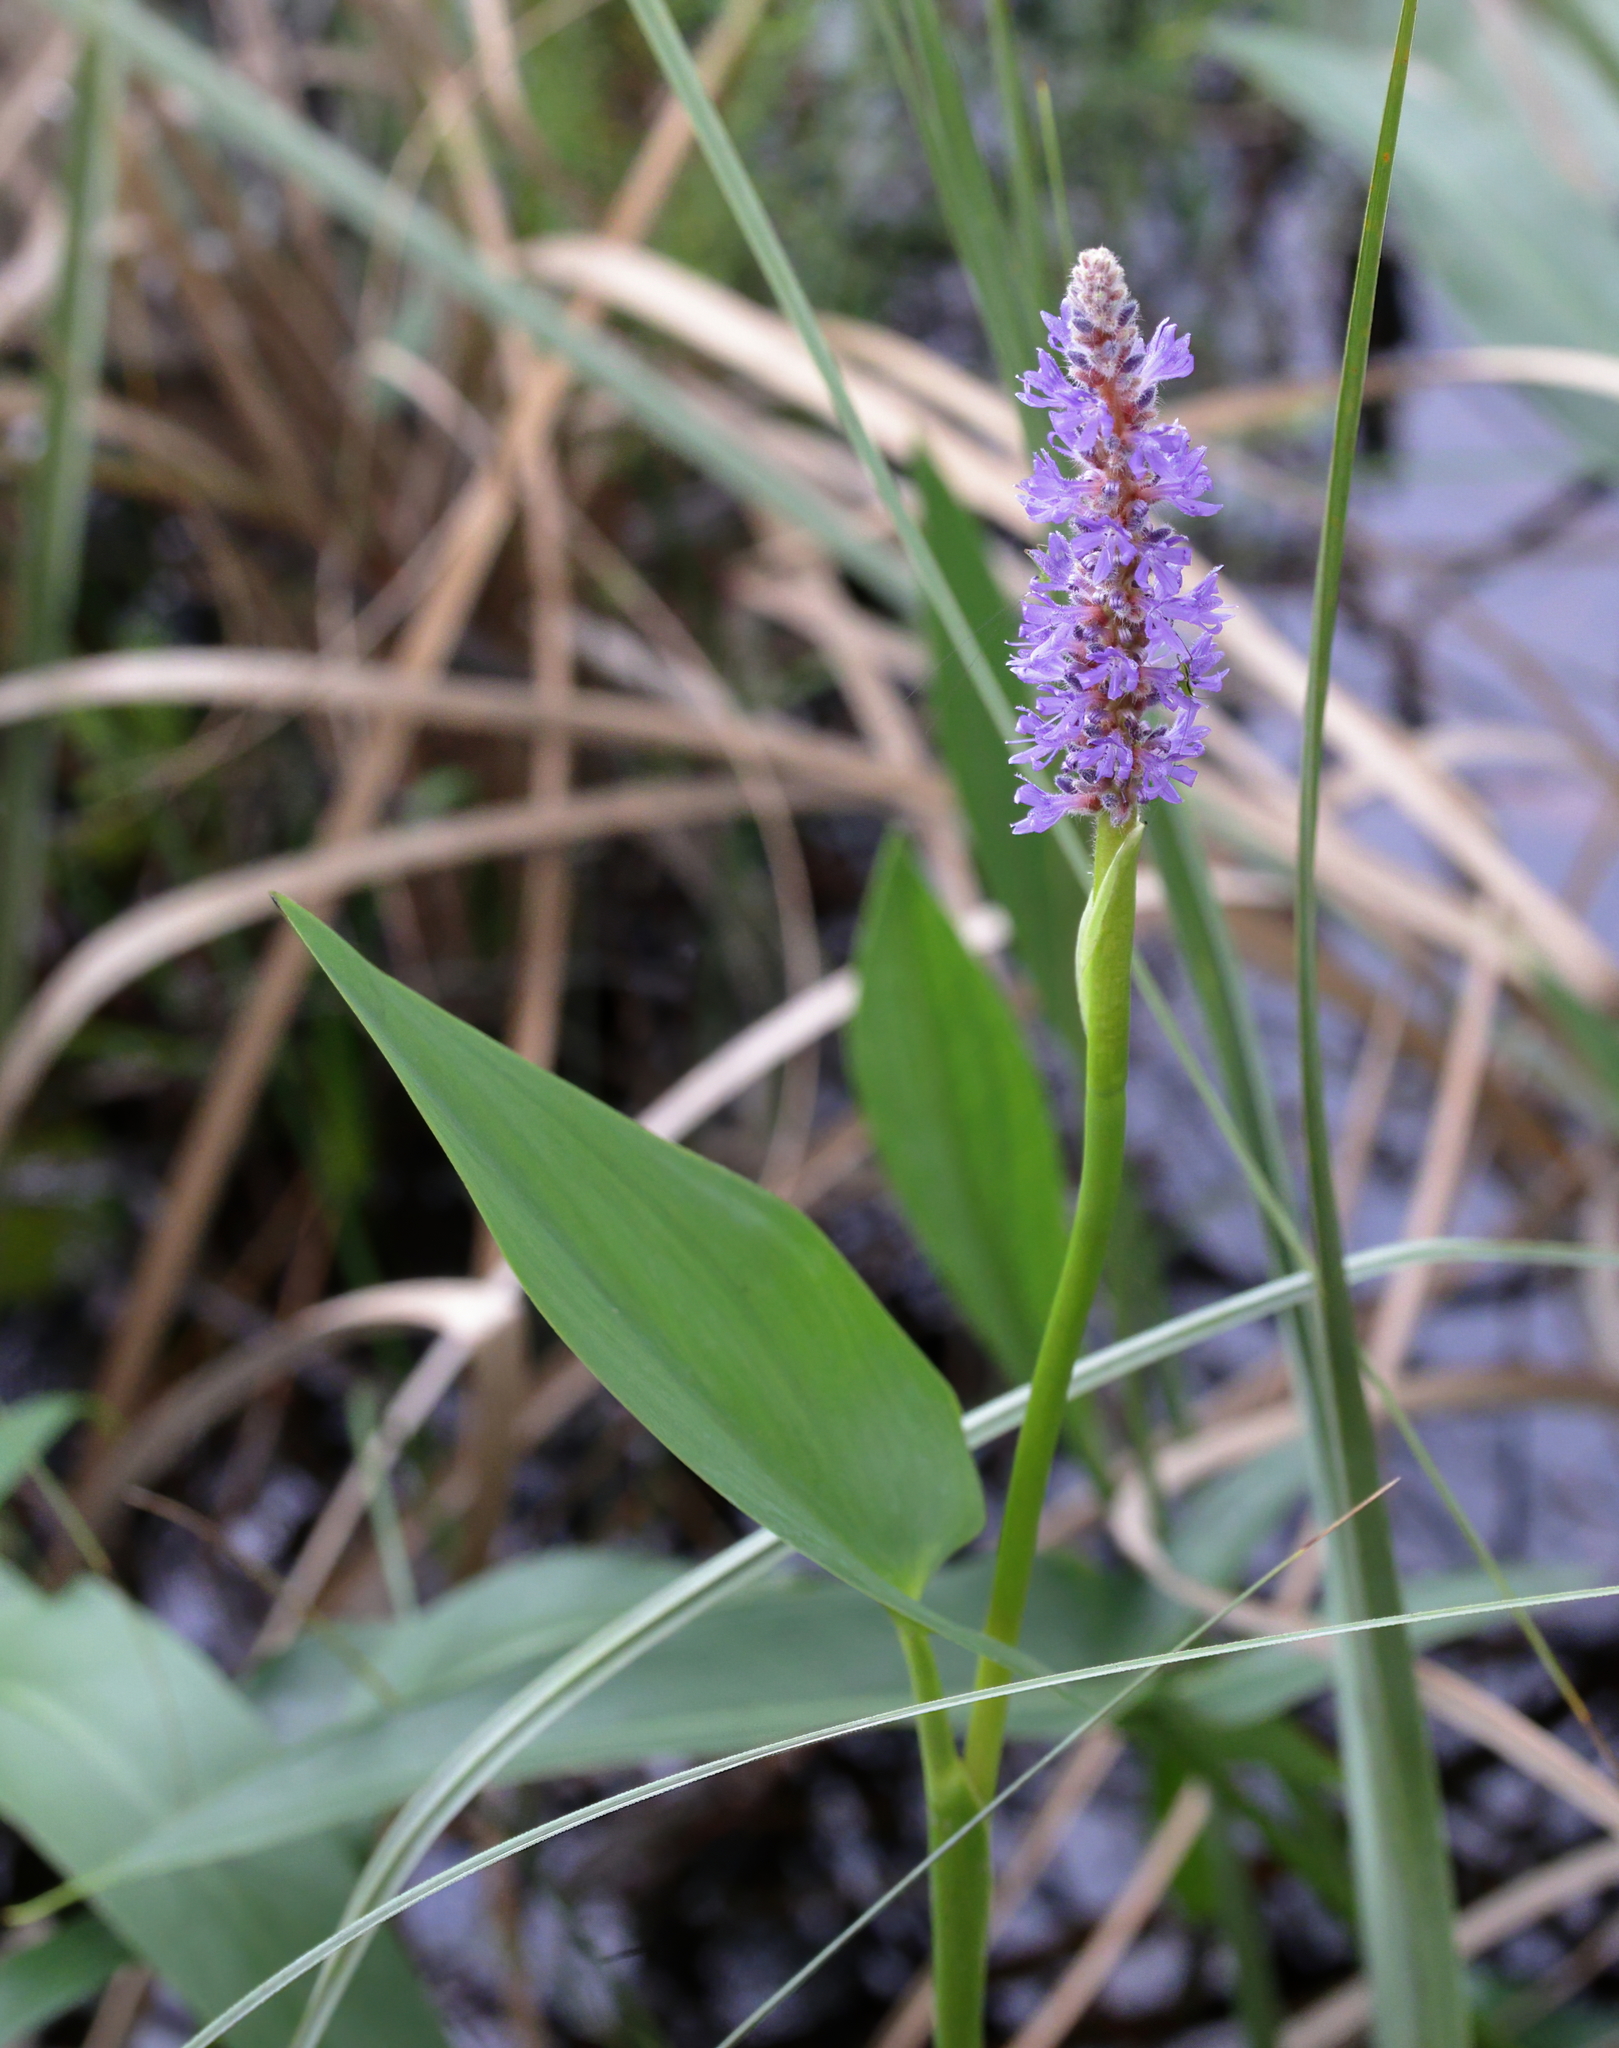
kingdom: Plantae
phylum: Tracheophyta
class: Liliopsida
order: Commelinales
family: Pontederiaceae
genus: Pontederia
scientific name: Pontederia cordata
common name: Pickerelweed
